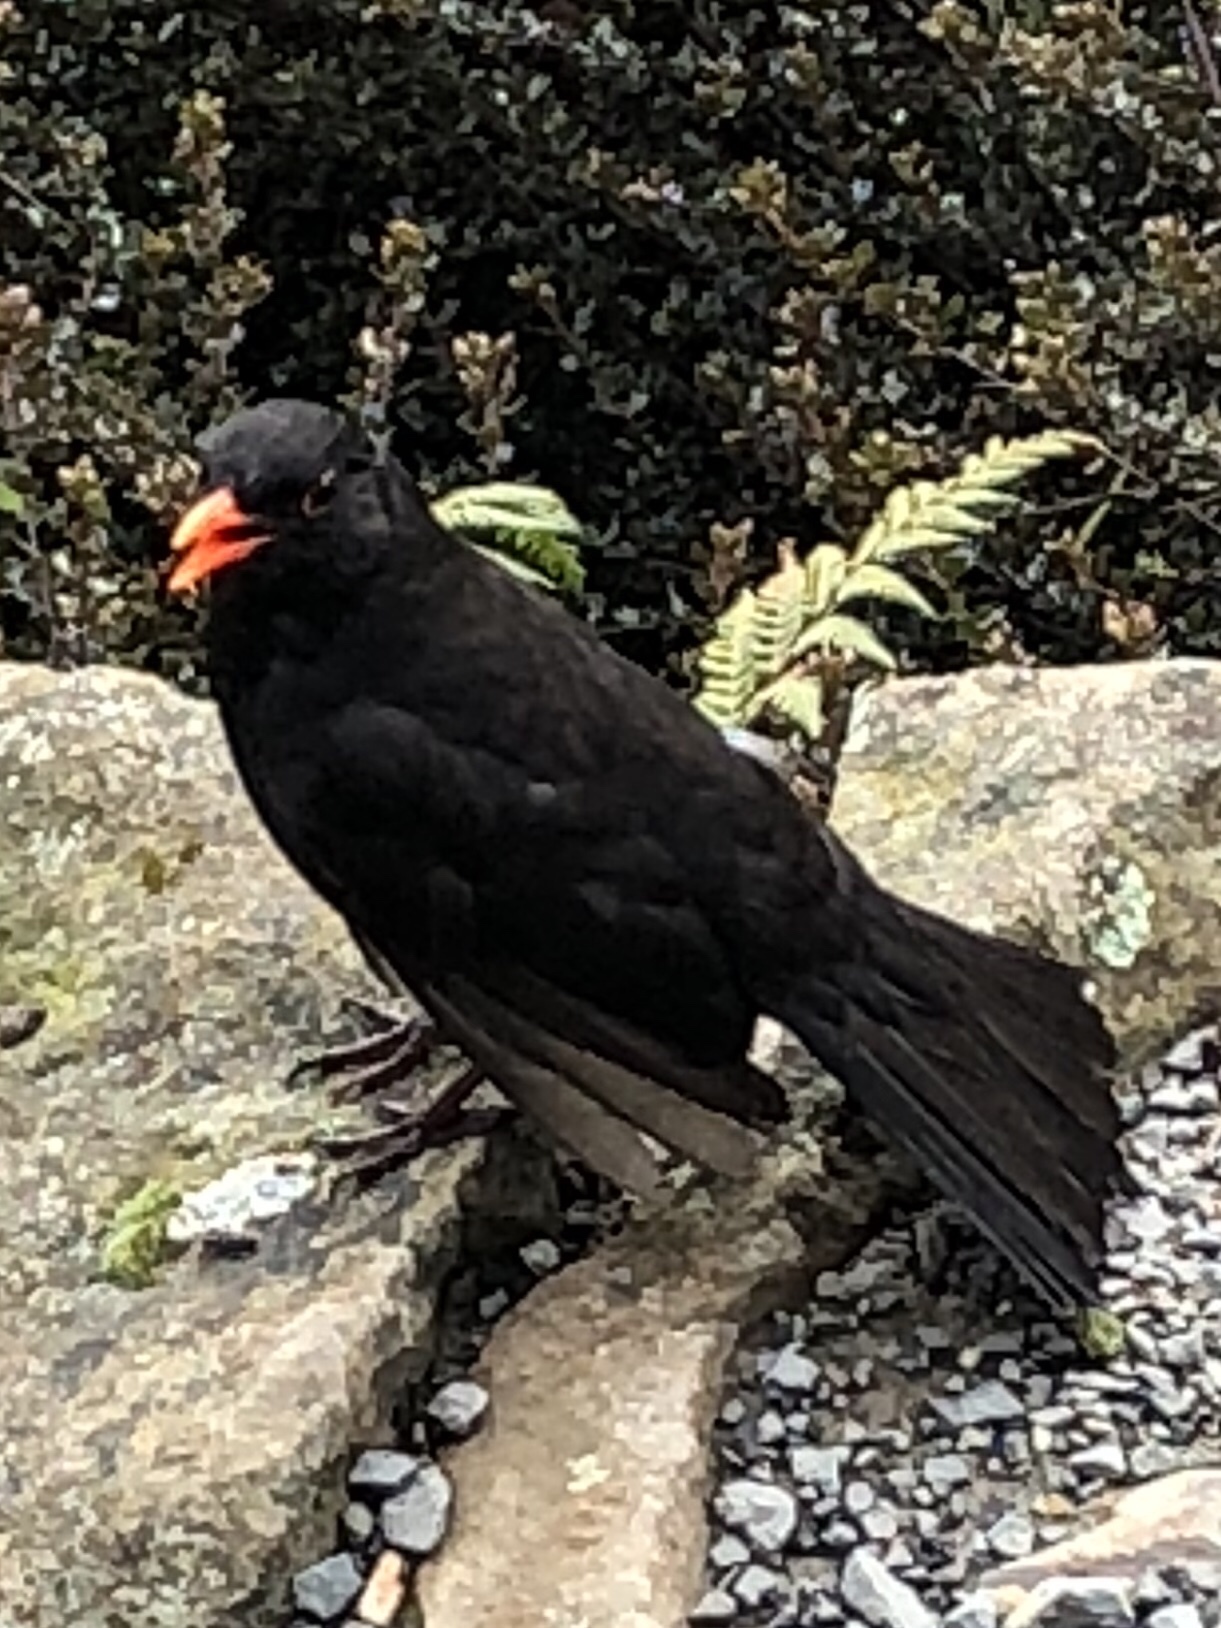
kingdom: Animalia
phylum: Chordata
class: Aves
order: Passeriformes
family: Turdidae
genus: Turdus
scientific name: Turdus merula
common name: Common blackbird
